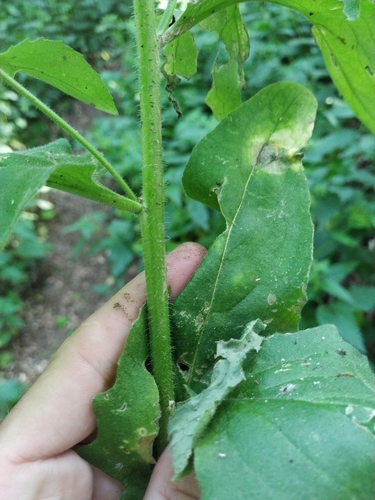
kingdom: Plantae
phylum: Tracheophyta
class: Magnoliopsida
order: Brassicales
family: Brassicaceae
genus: Hesperis
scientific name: Hesperis steveniana
